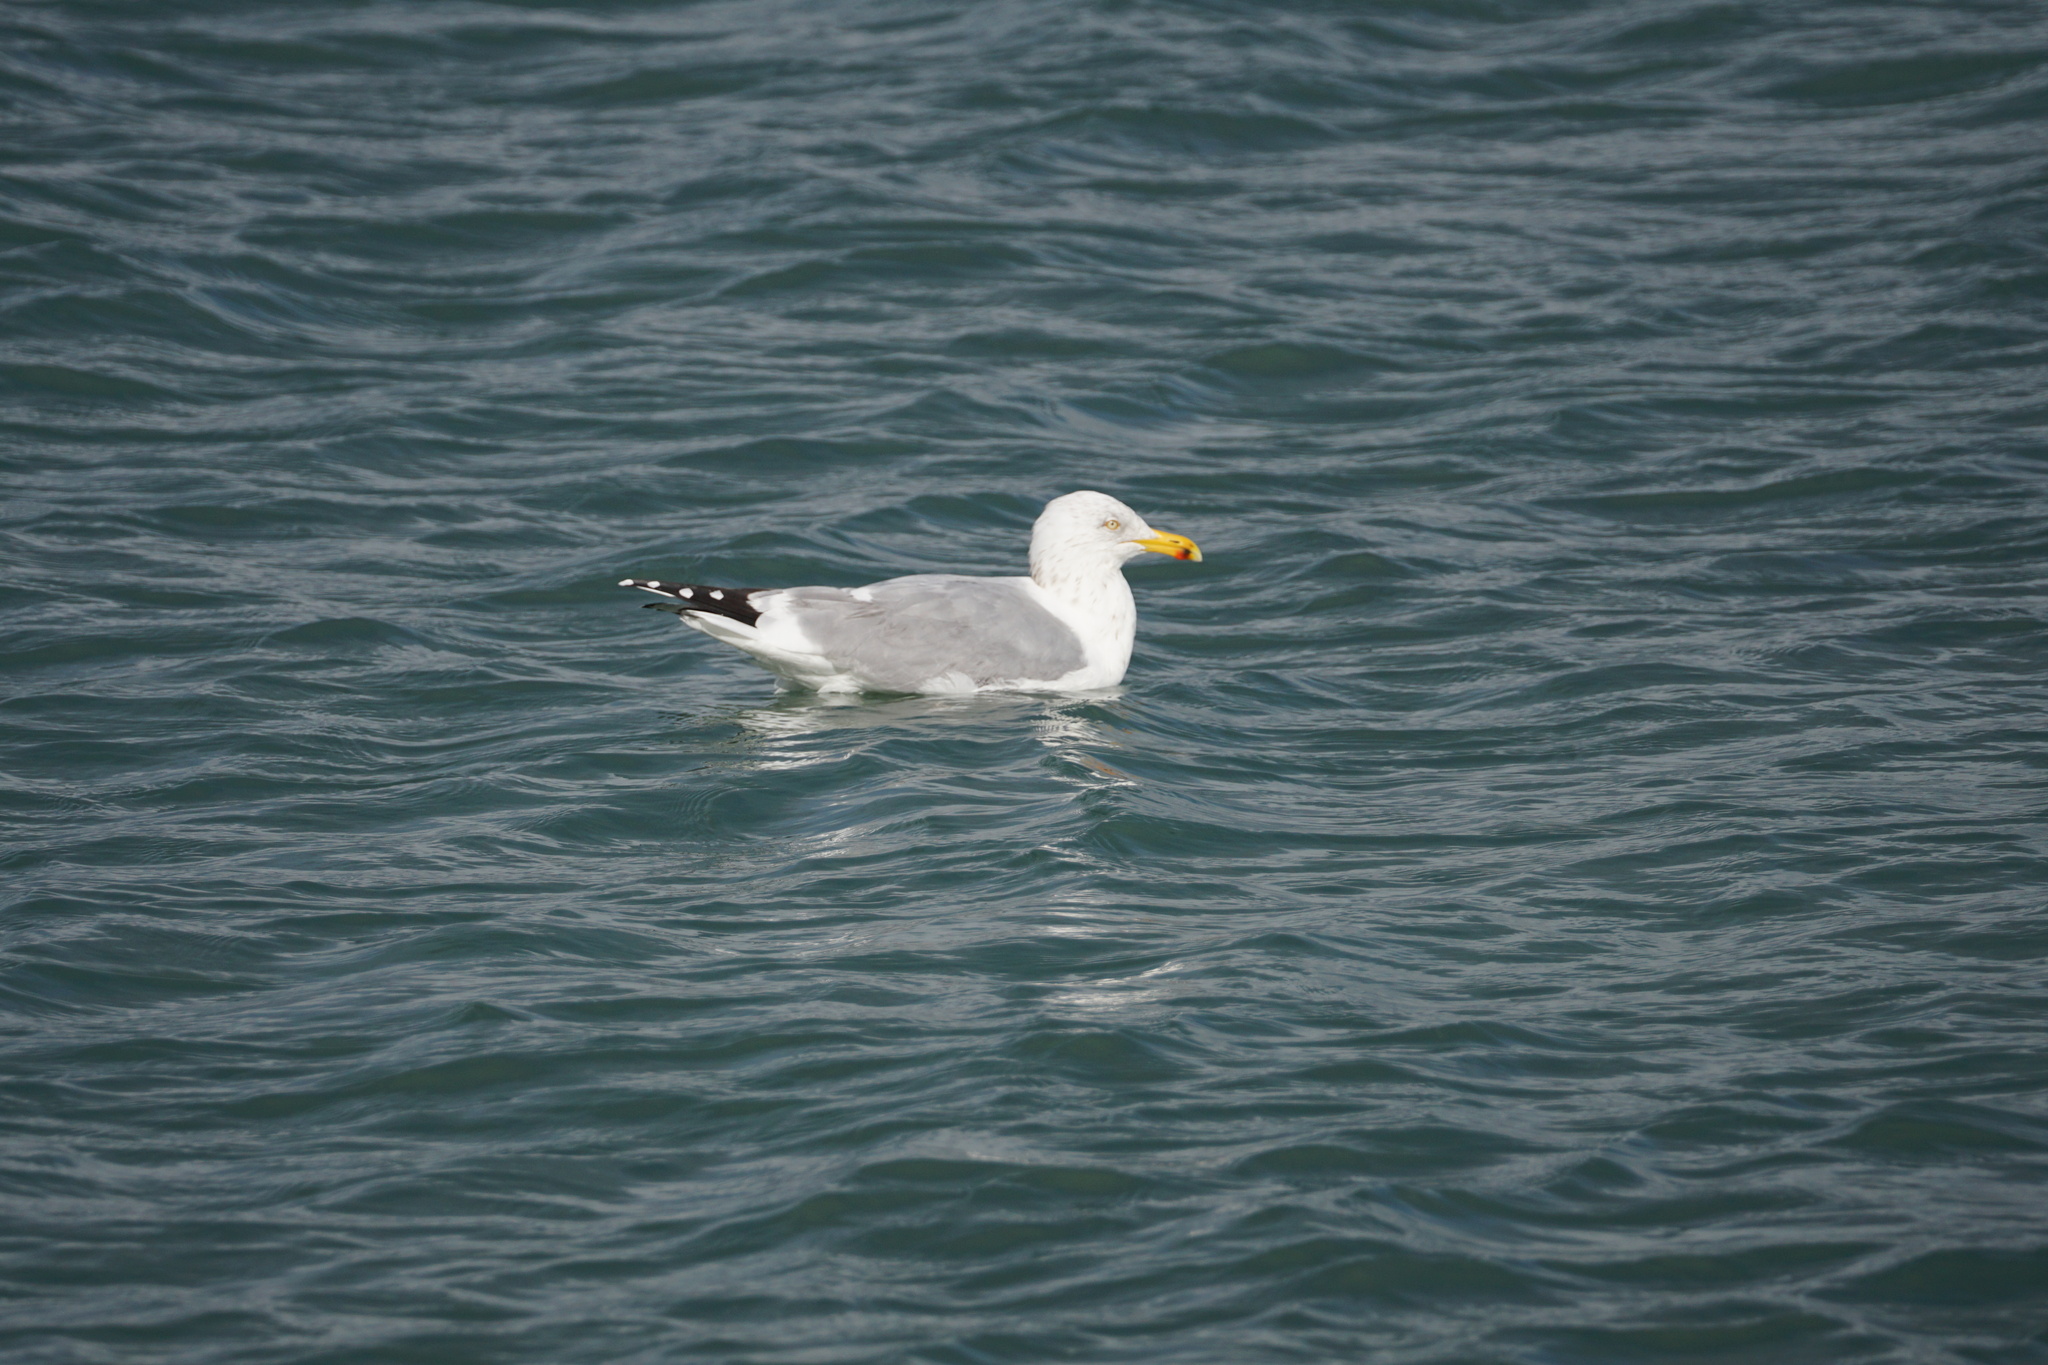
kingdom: Animalia
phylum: Chordata
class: Aves
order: Charadriiformes
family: Laridae
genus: Larus
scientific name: Larus argentatus
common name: Herring gull
